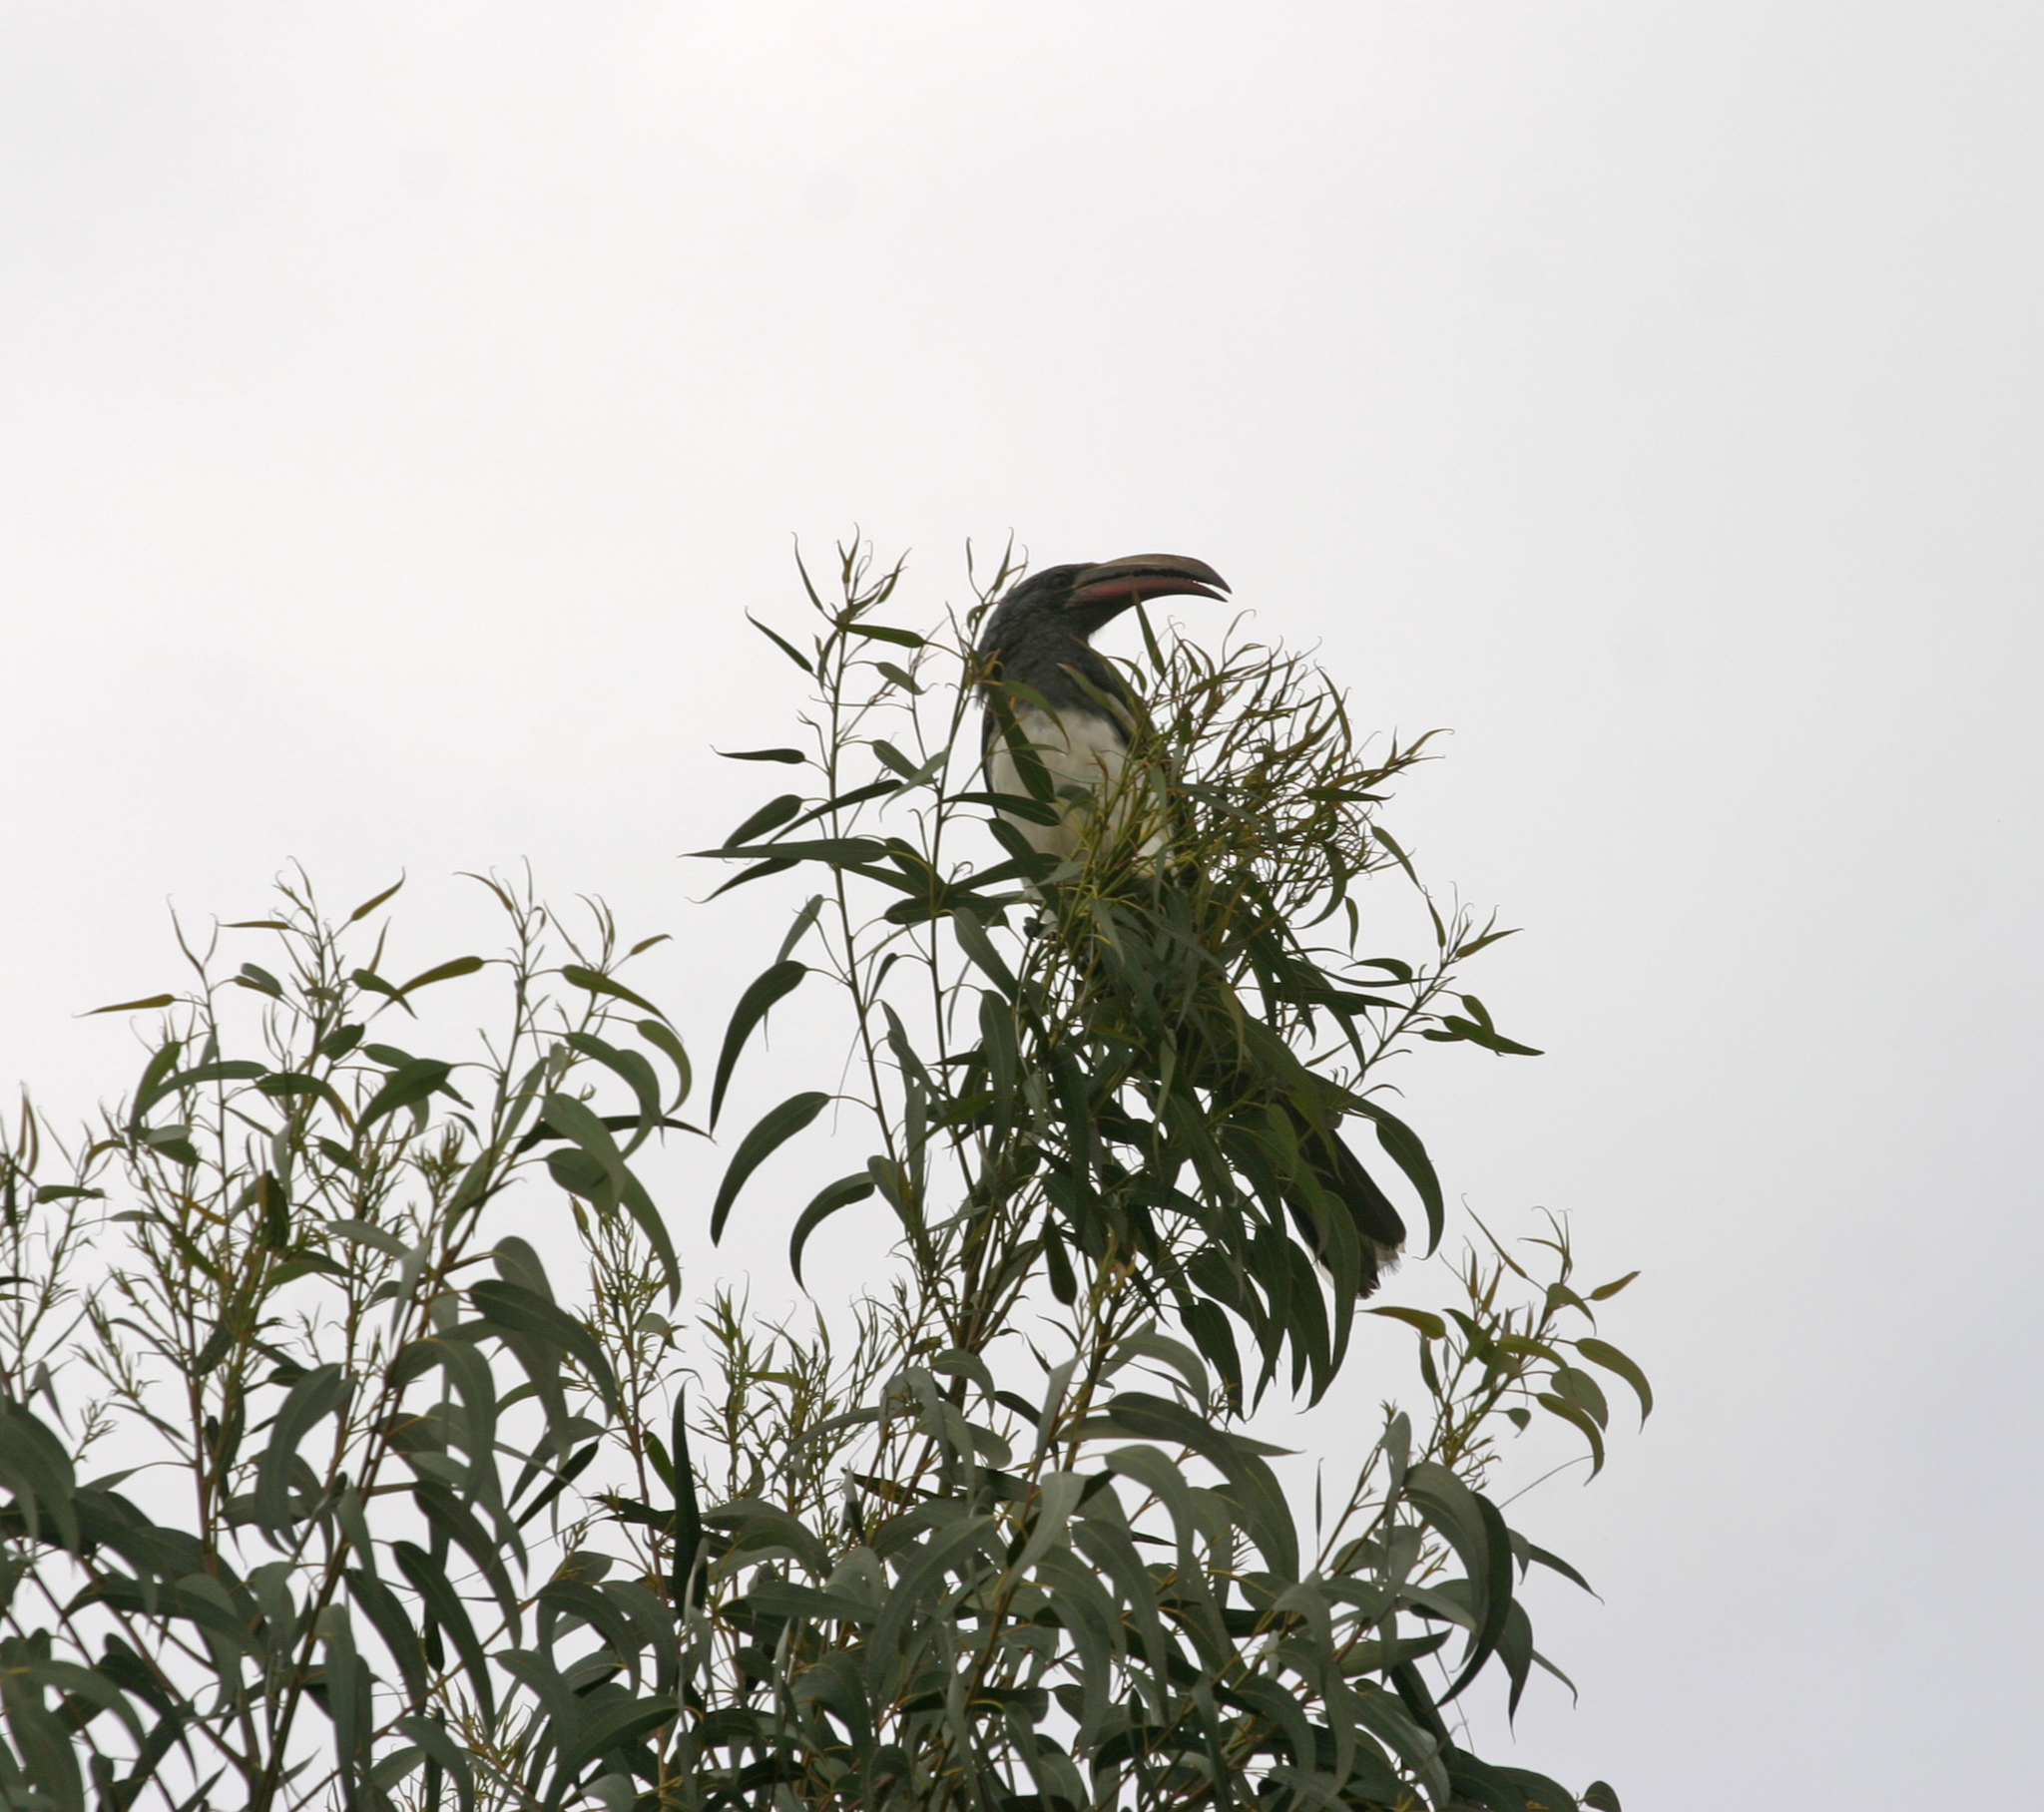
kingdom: Animalia
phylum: Chordata
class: Aves
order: Bucerotiformes
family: Bucerotidae
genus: Lophoceros
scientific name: Lophoceros hemprichii
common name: Hemprich's hornbill
